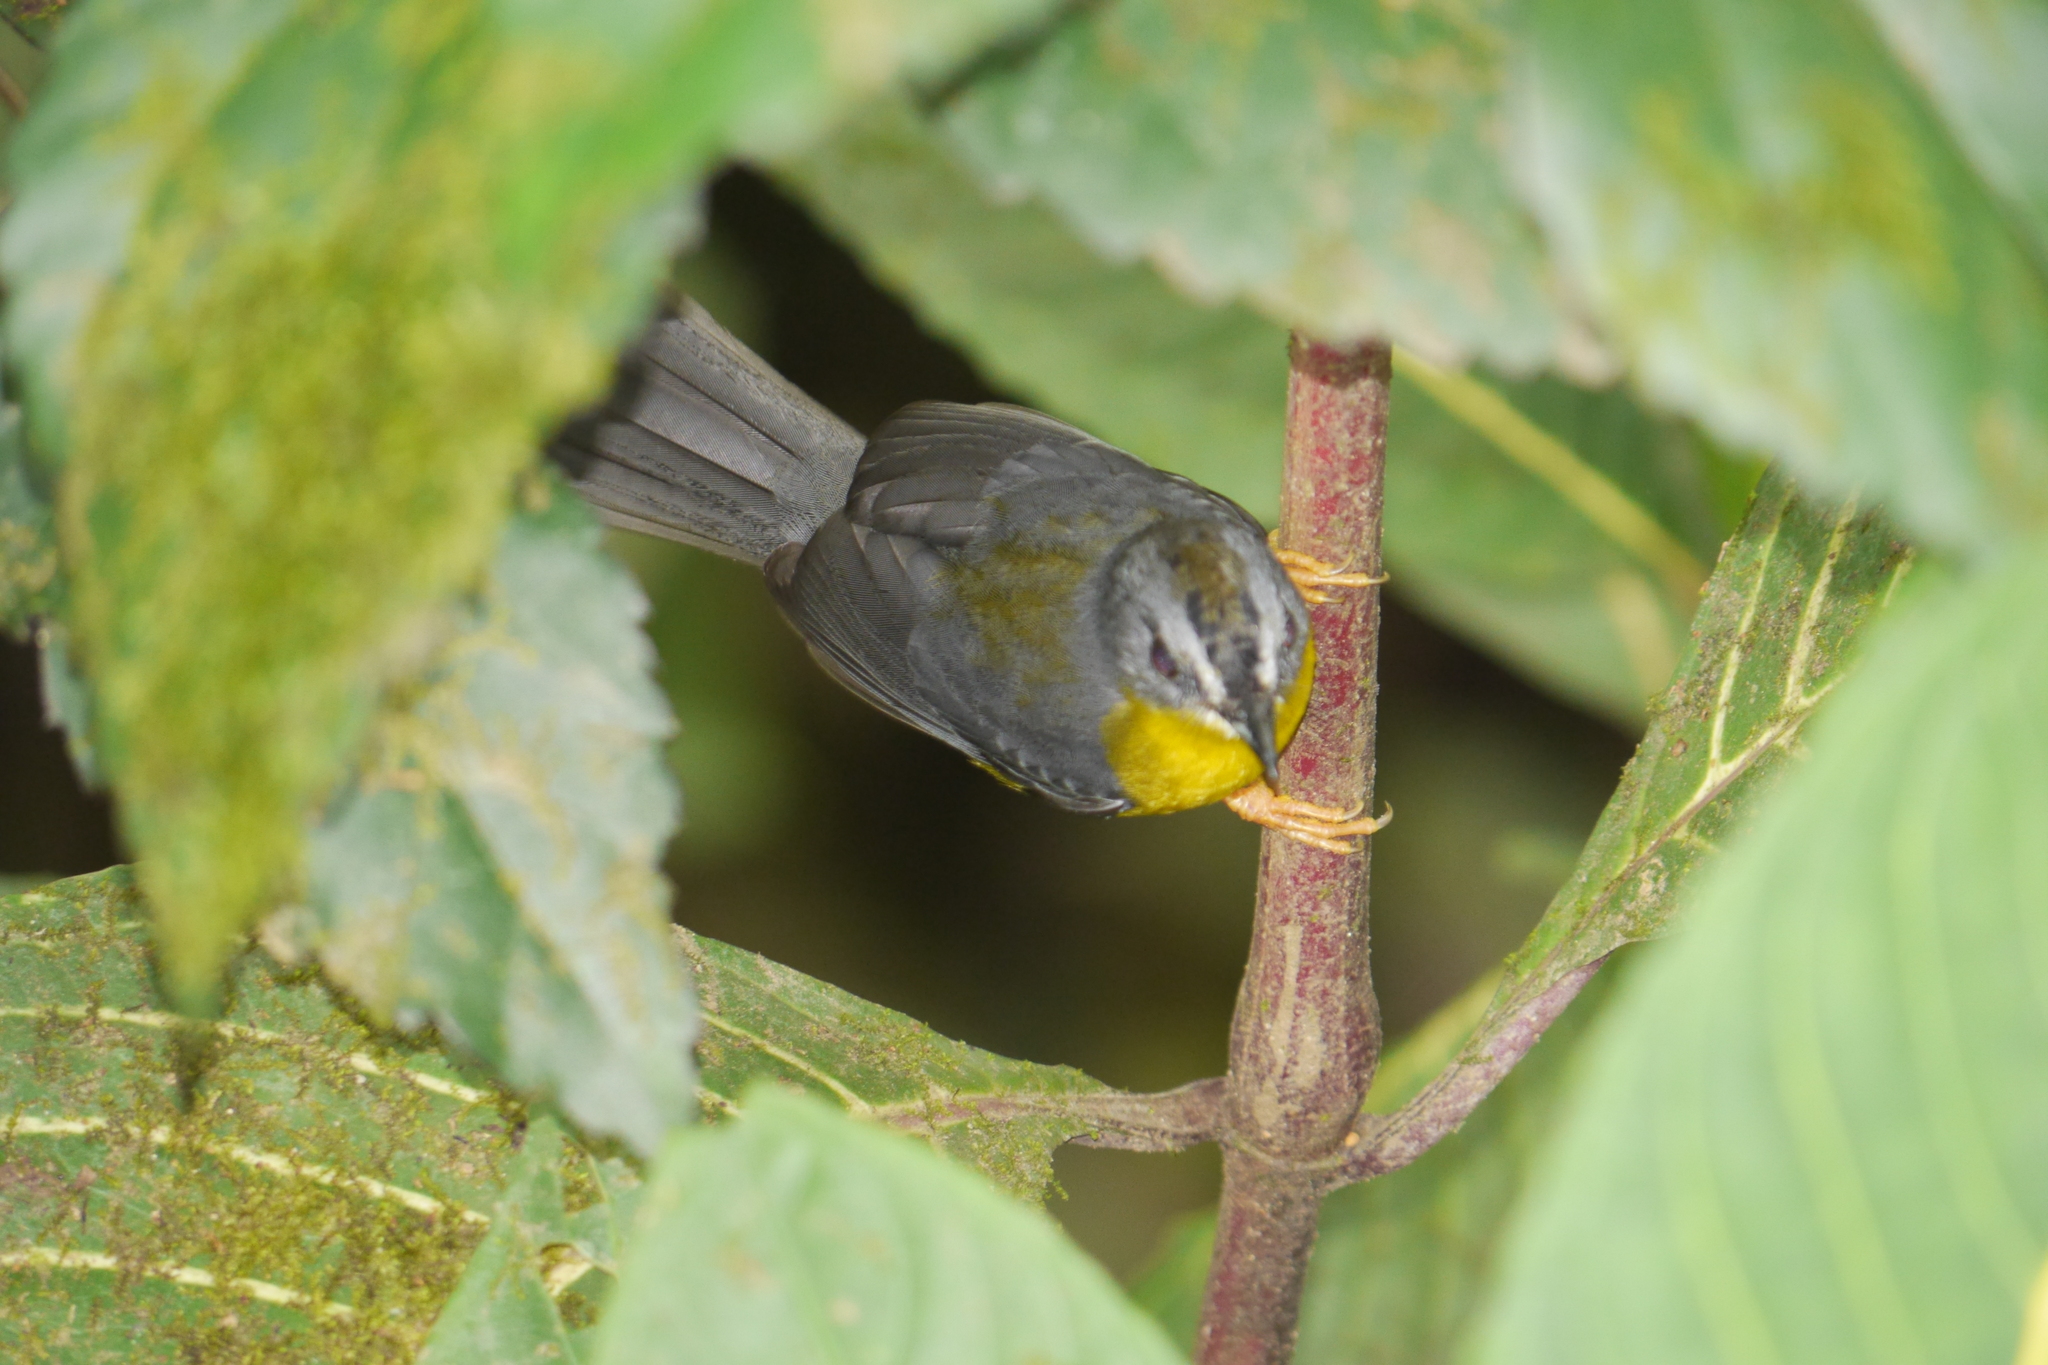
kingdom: Animalia
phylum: Chordata
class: Aves
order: Passeriformes
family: Parulidae
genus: Myiothlypis
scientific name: Myiothlypis fraseri
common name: Grey-and-gold warbler
